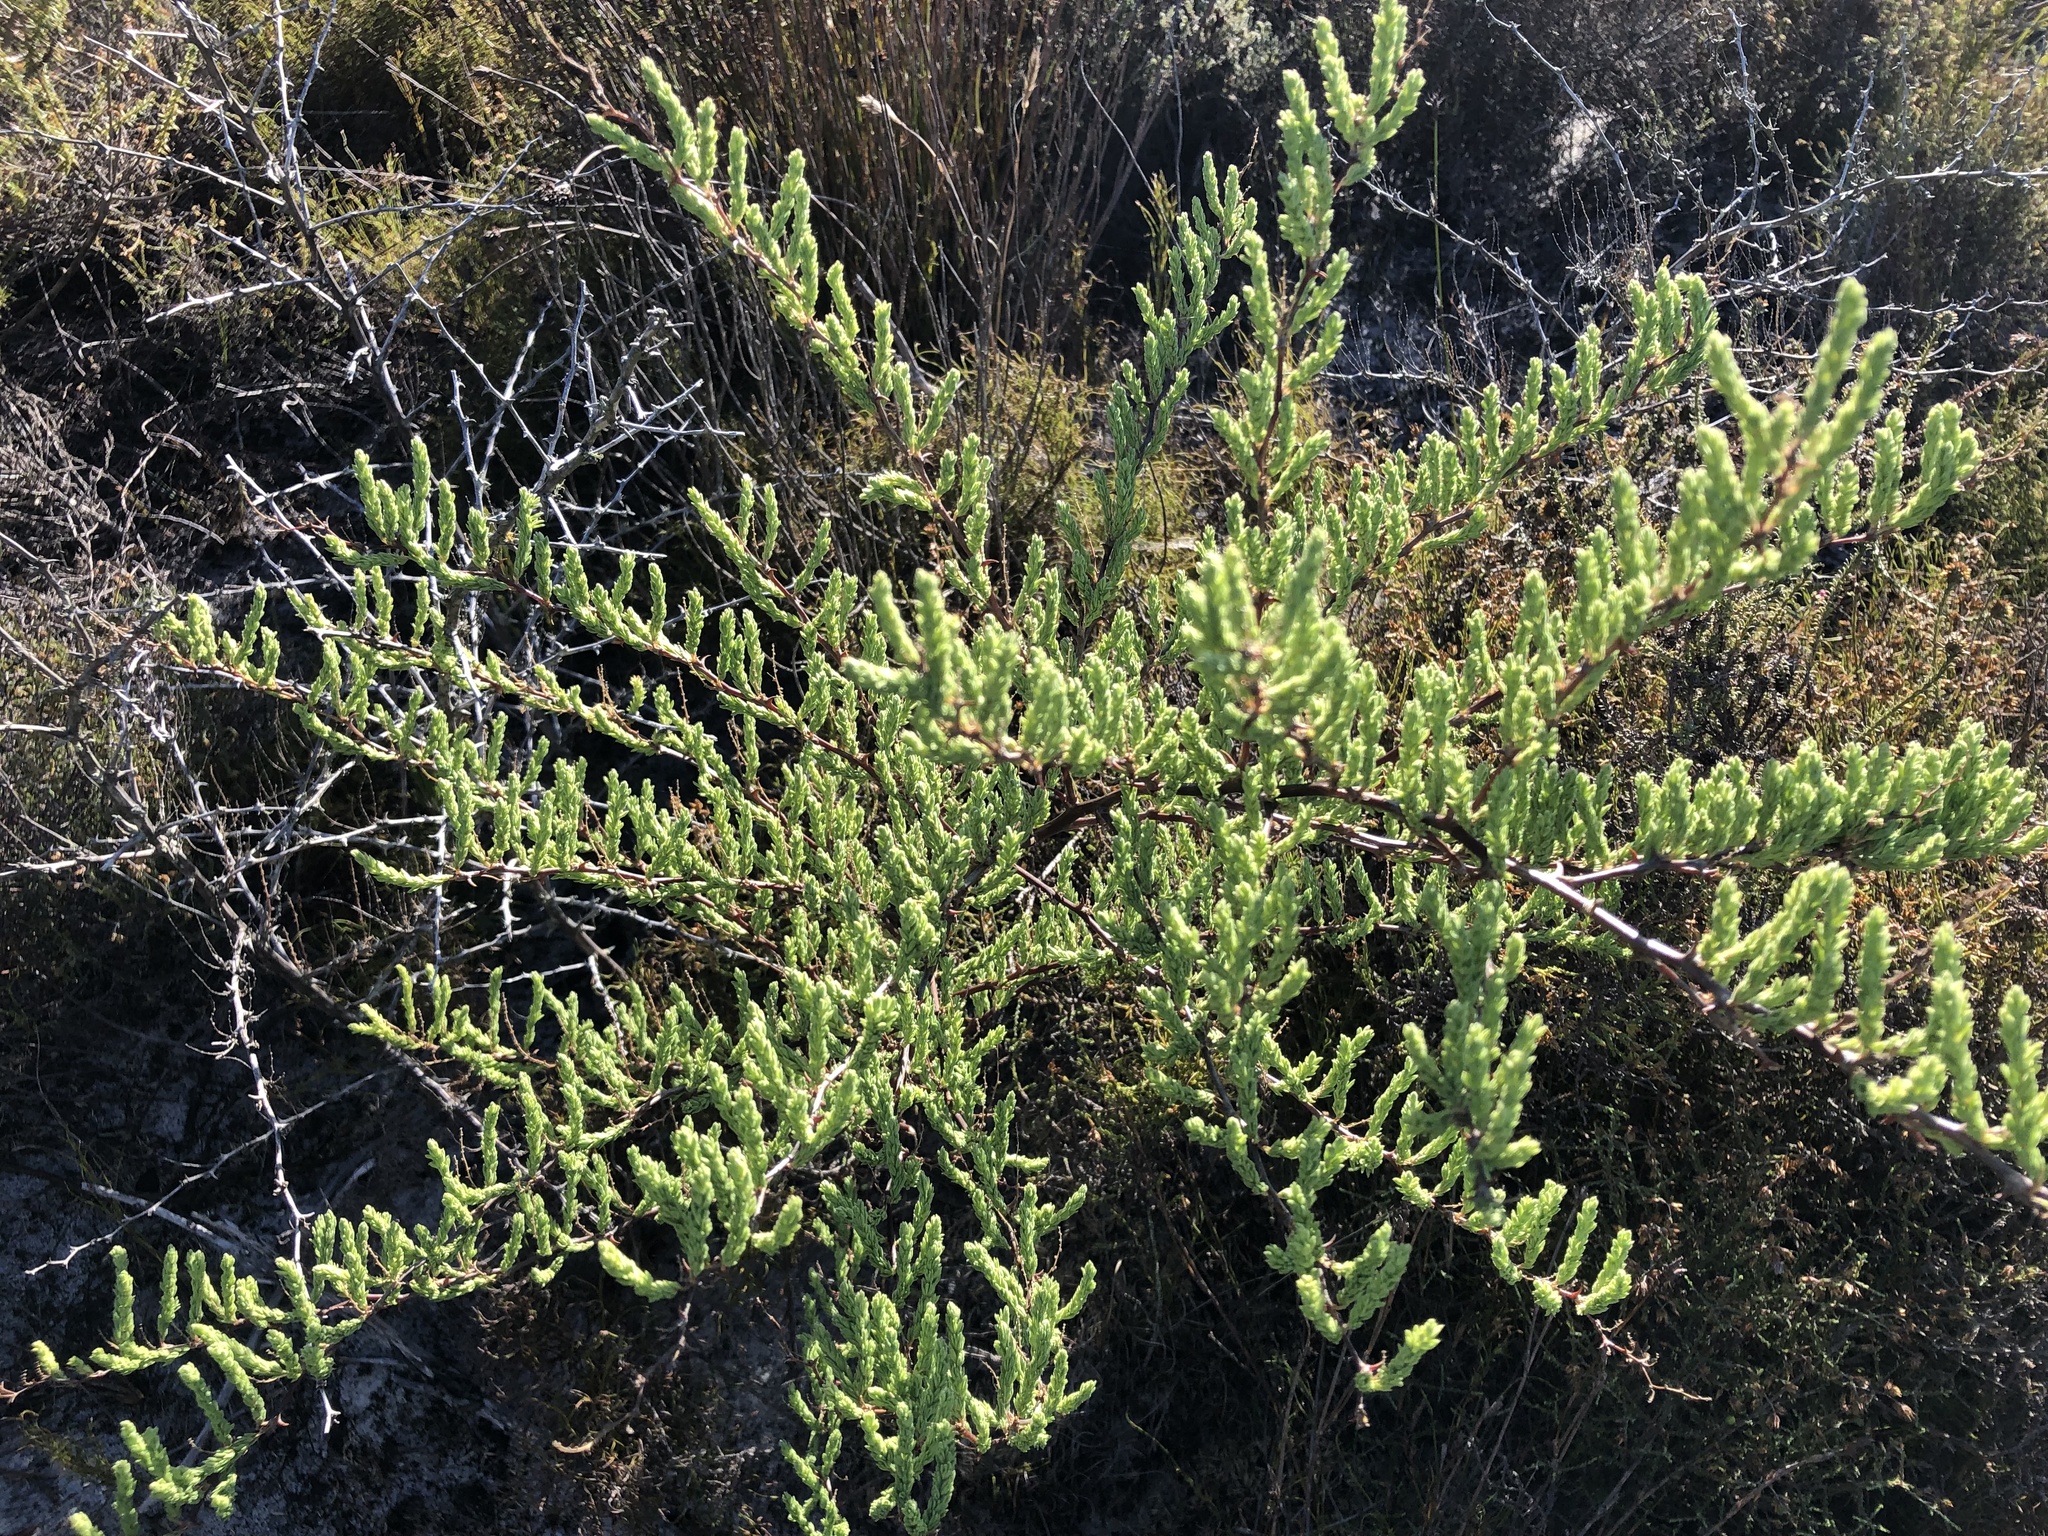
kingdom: Plantae
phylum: Tracheophyta
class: Liliopsida
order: Asparagales
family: Asparagaceae
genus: Asparagus
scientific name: Asparagus rubicundus
